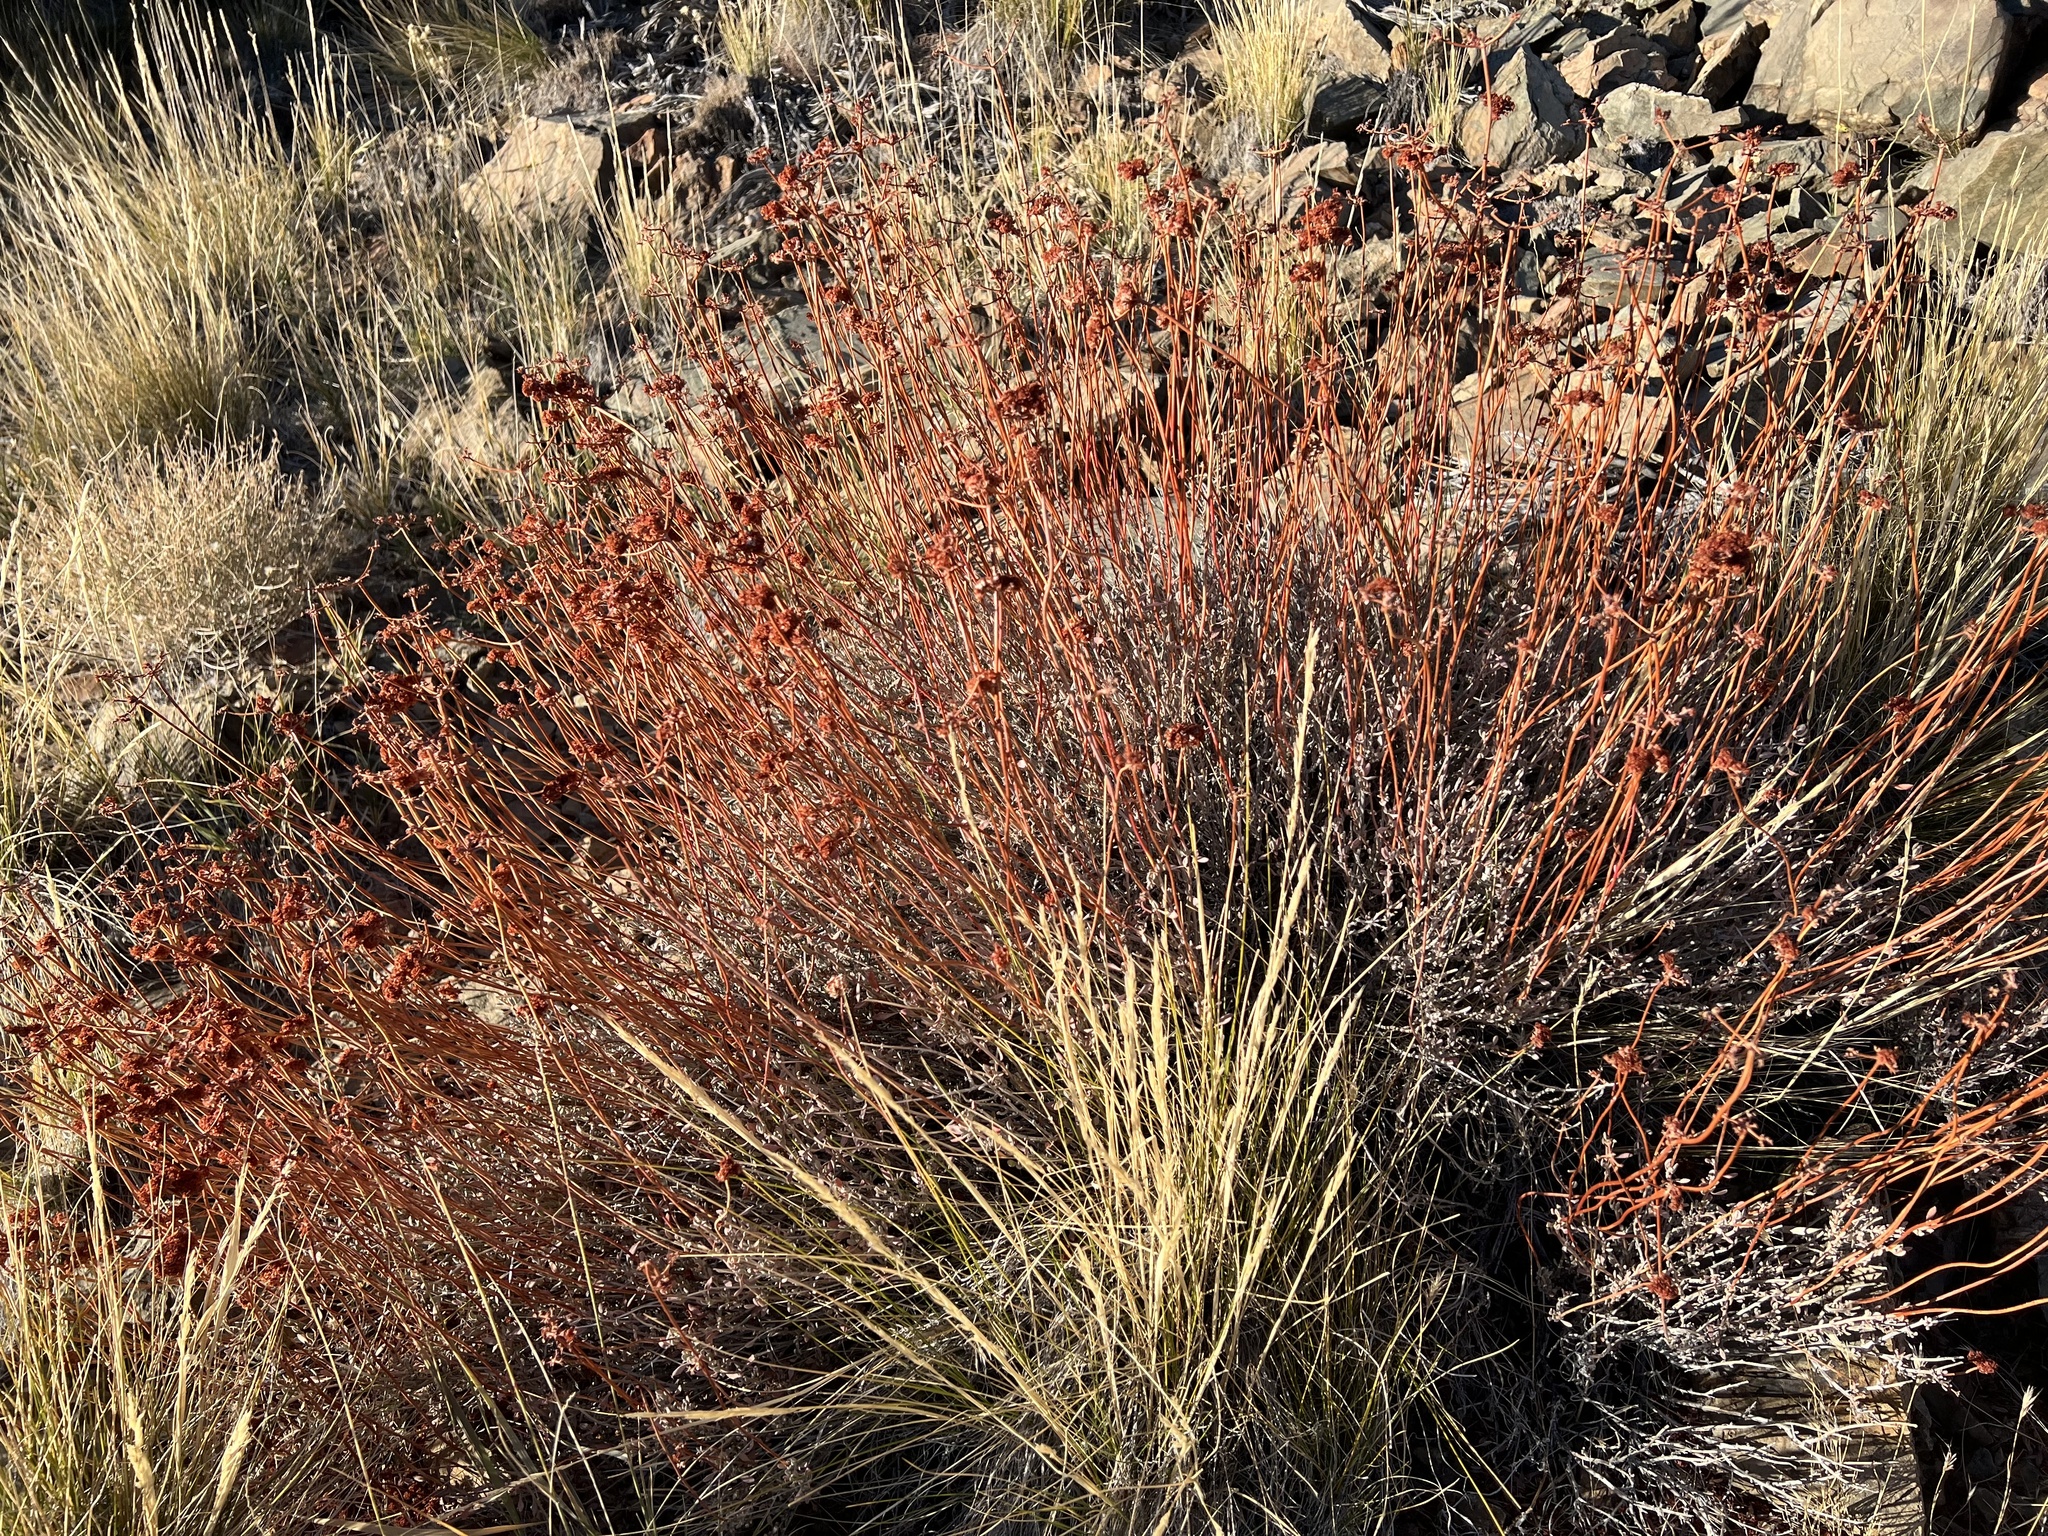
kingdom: Plantae
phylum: Tracheophyta
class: Magnoliopsida
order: Caryophyllales
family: Polygonaceae
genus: Eriogonum
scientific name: Eriogonum fasciculatum
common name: California wild buckwheat
